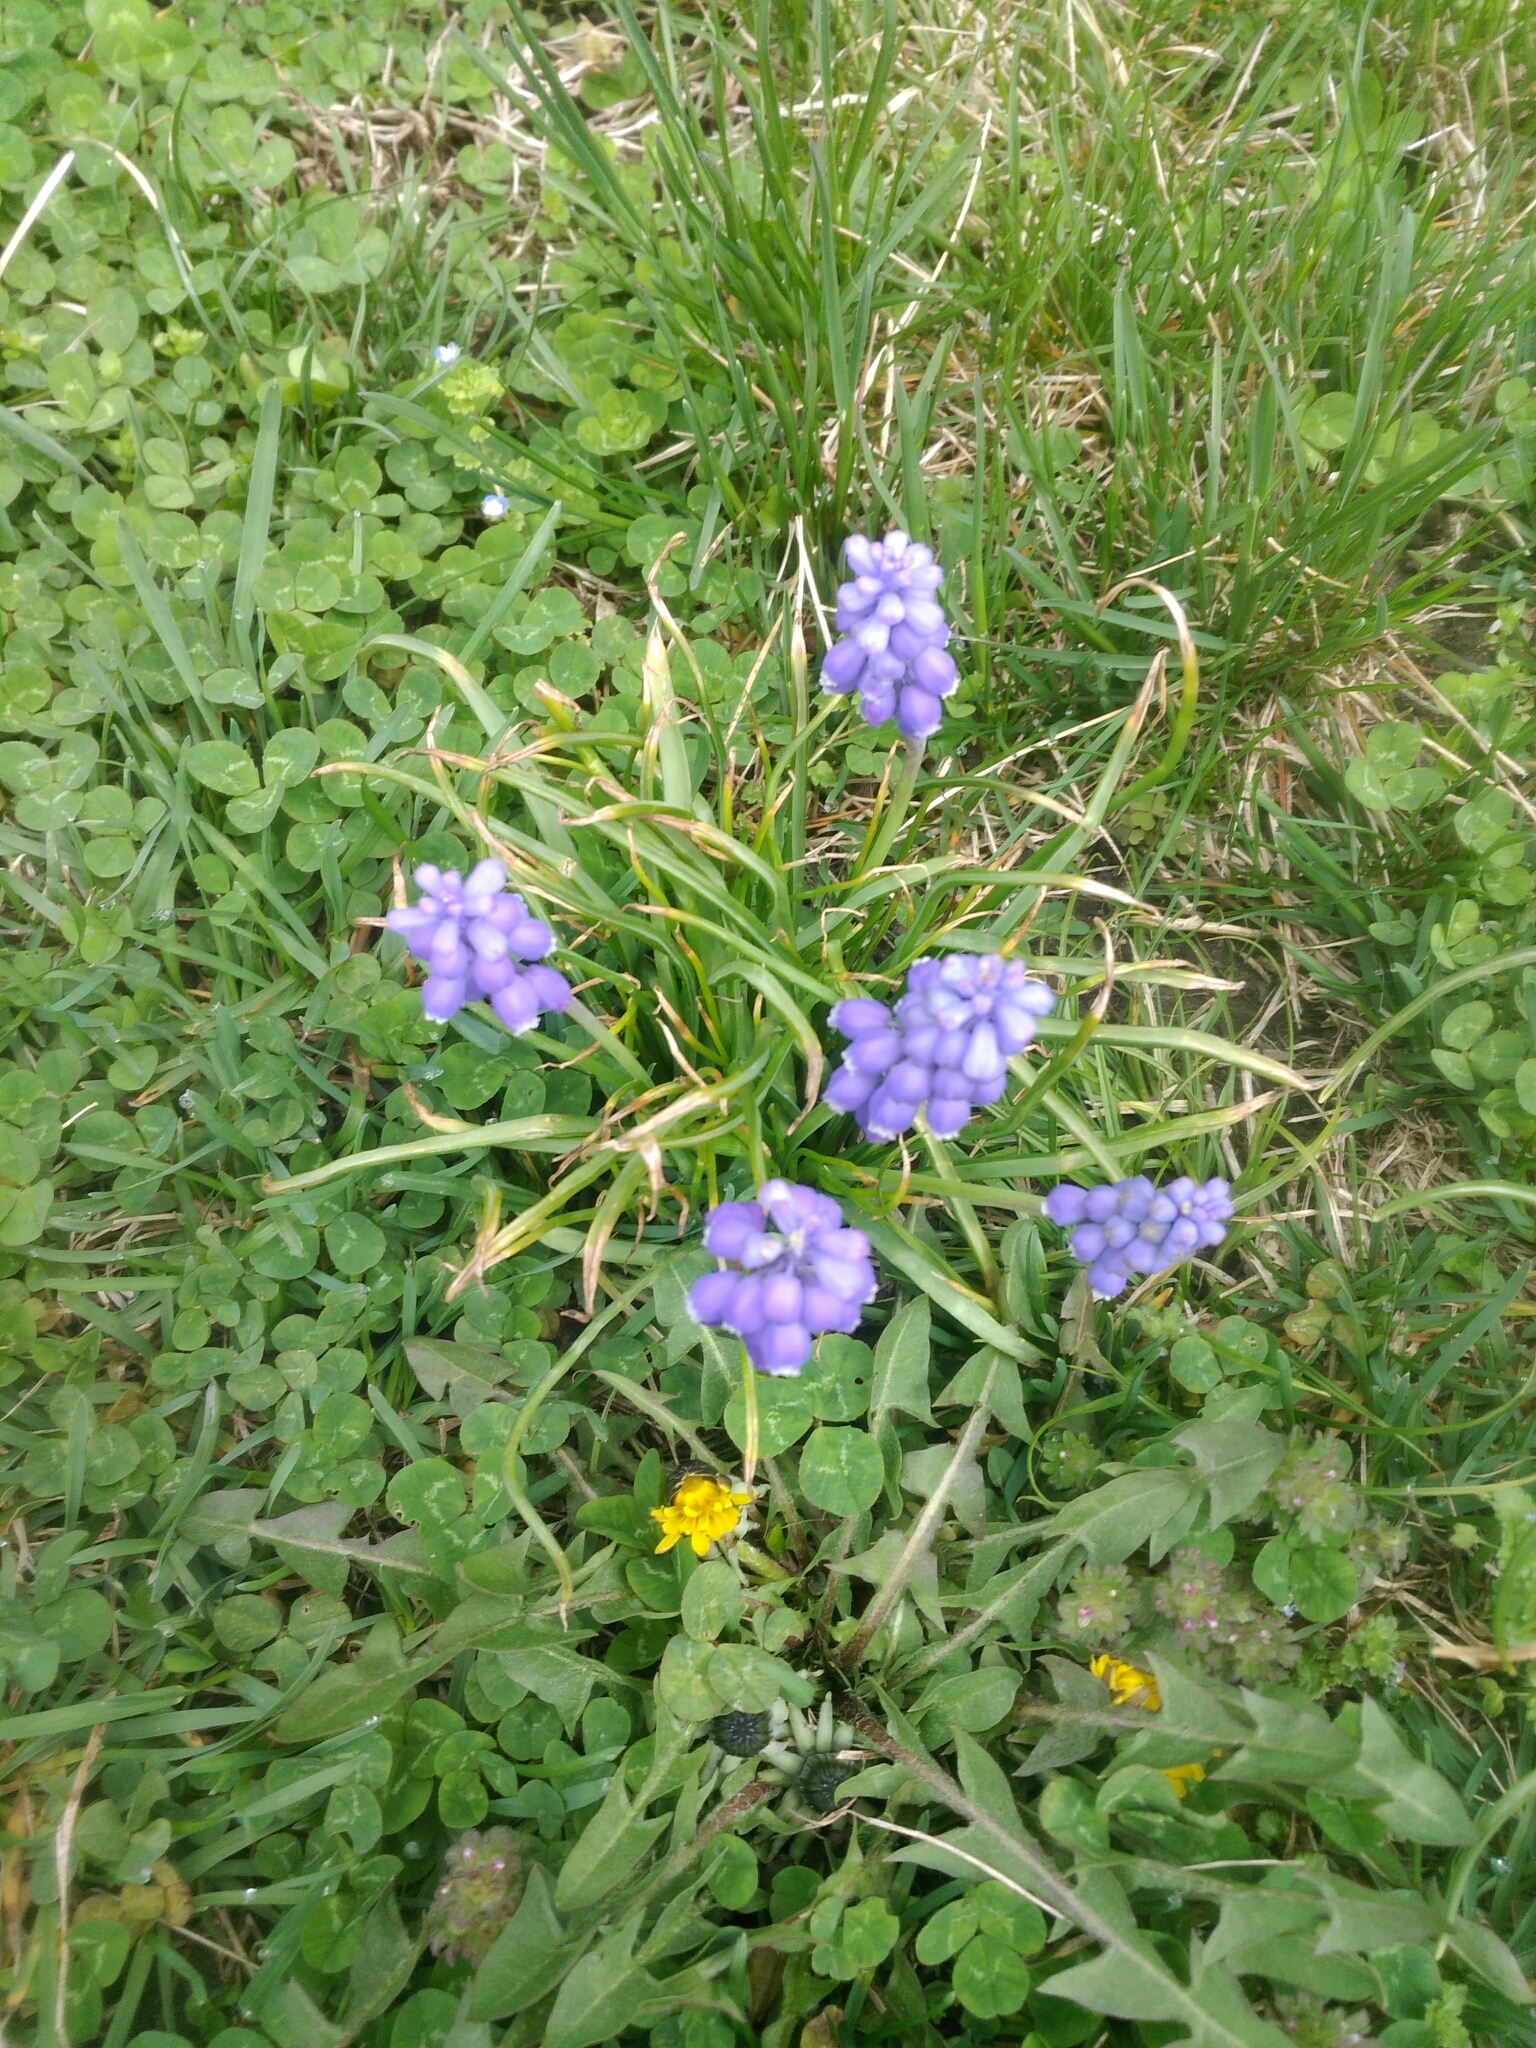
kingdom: Plantae
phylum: Tracheophyta
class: Liliopsida
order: Asparagales
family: Asparagaceae
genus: Muscari
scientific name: Muscari botryoides
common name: Compact grape-hyacinth
